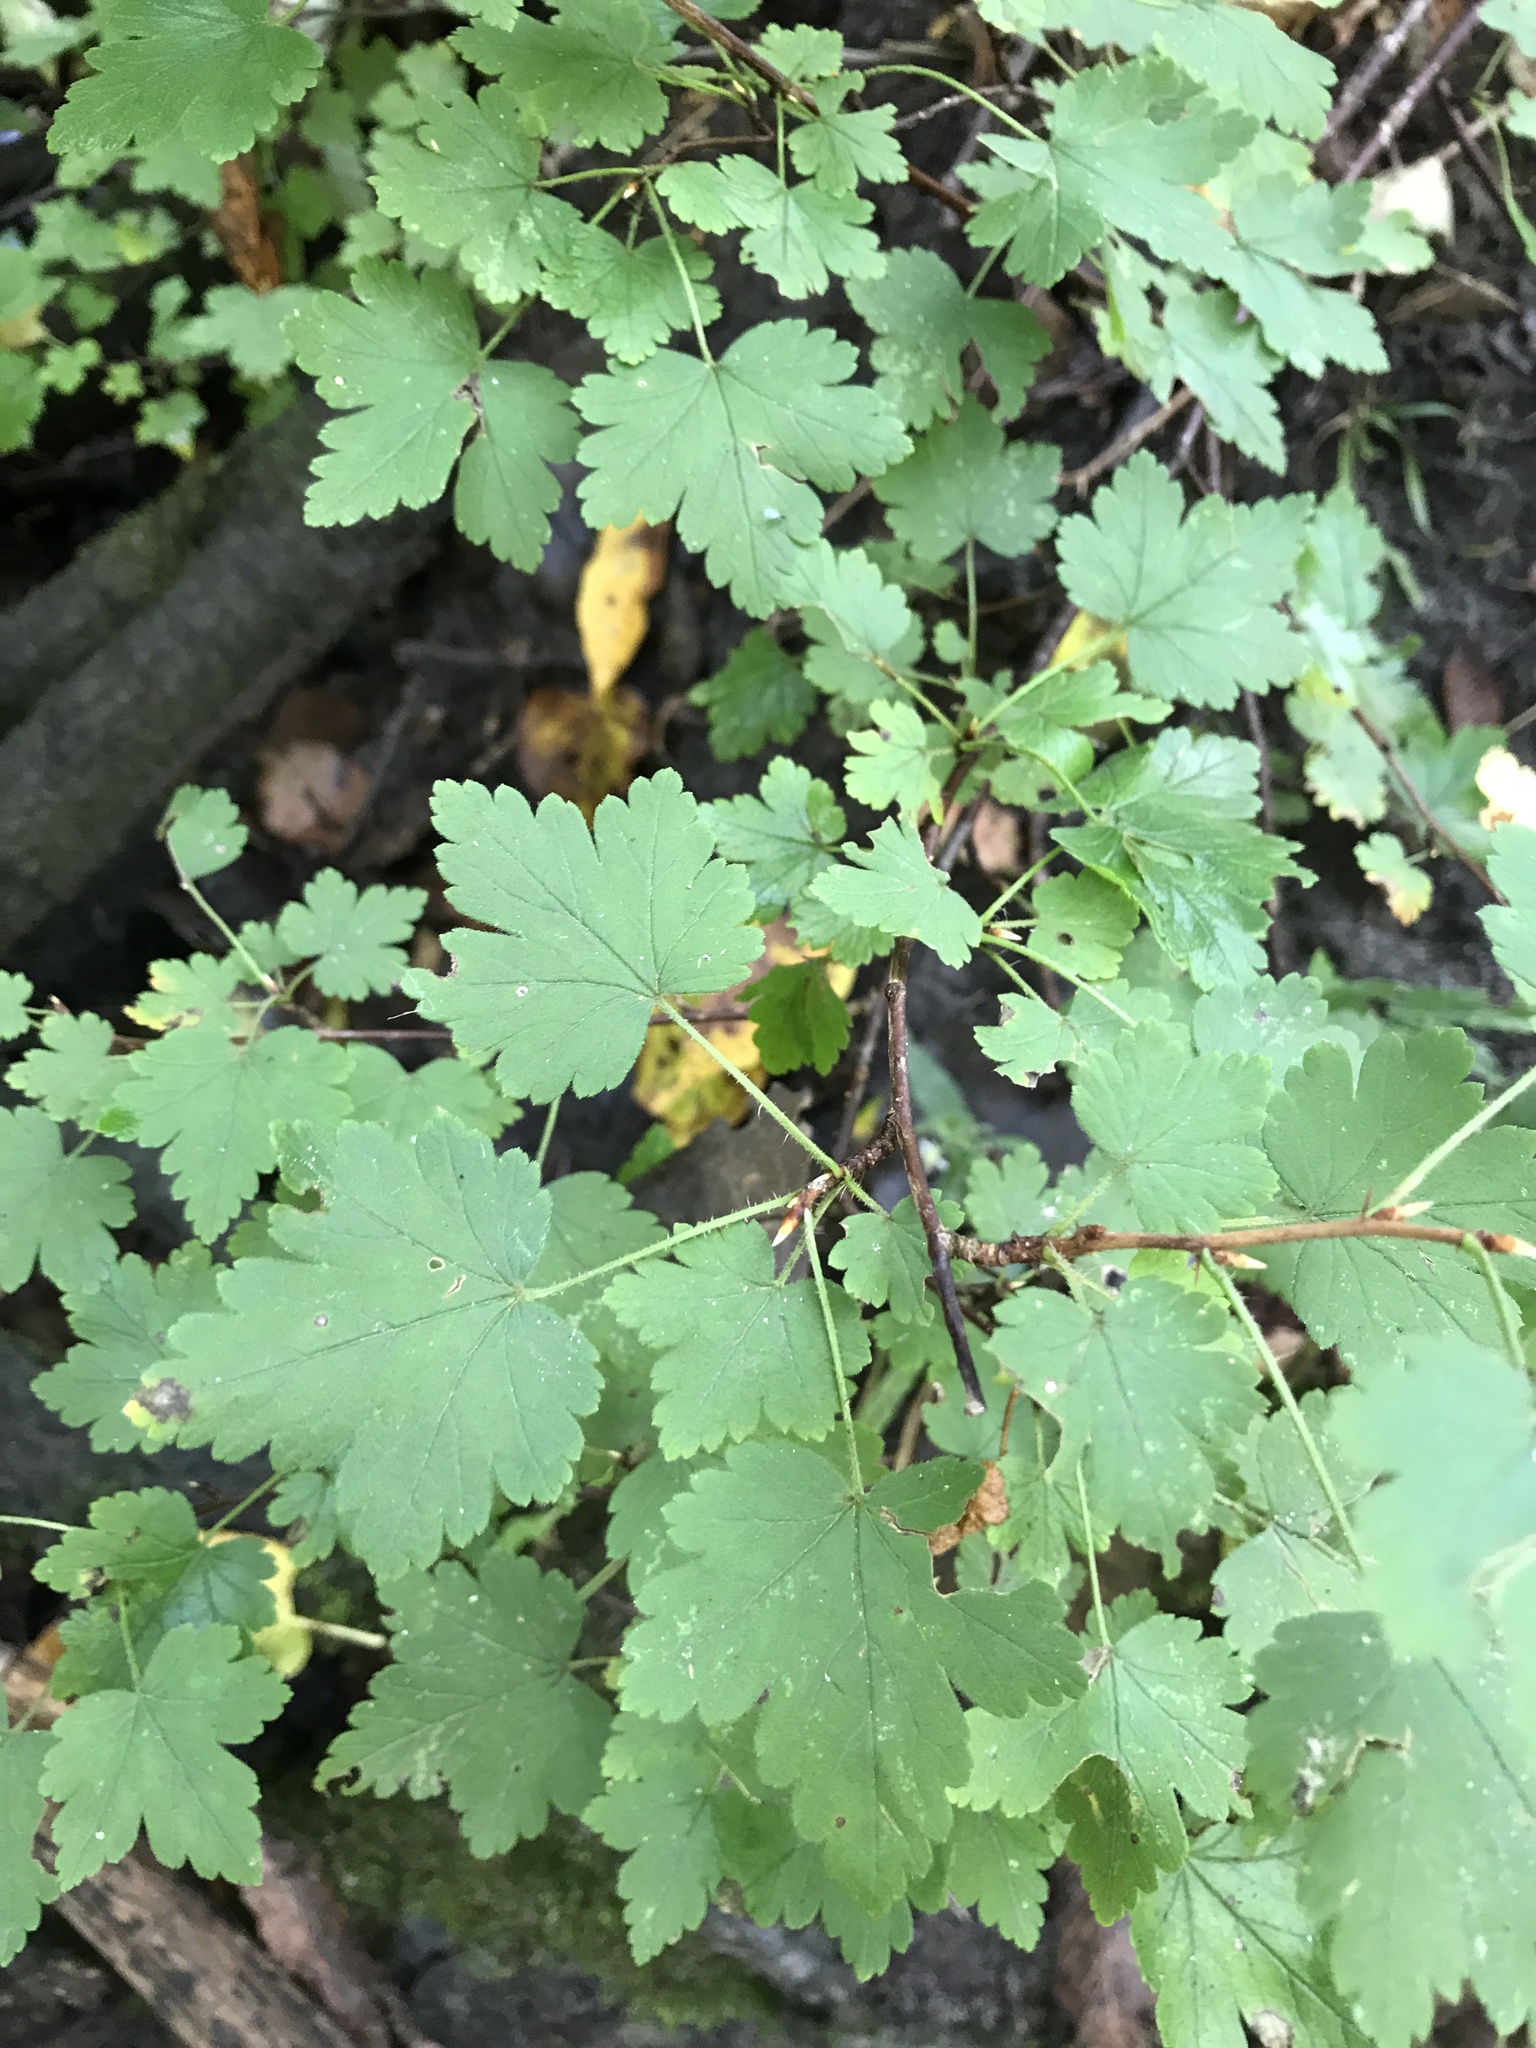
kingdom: Plantae
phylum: Tracheophyta
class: Magnoliopsida
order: Saxifragales
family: Grossulariaceae
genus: Ribes
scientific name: Ribes cynosbati
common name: American gooseberry
